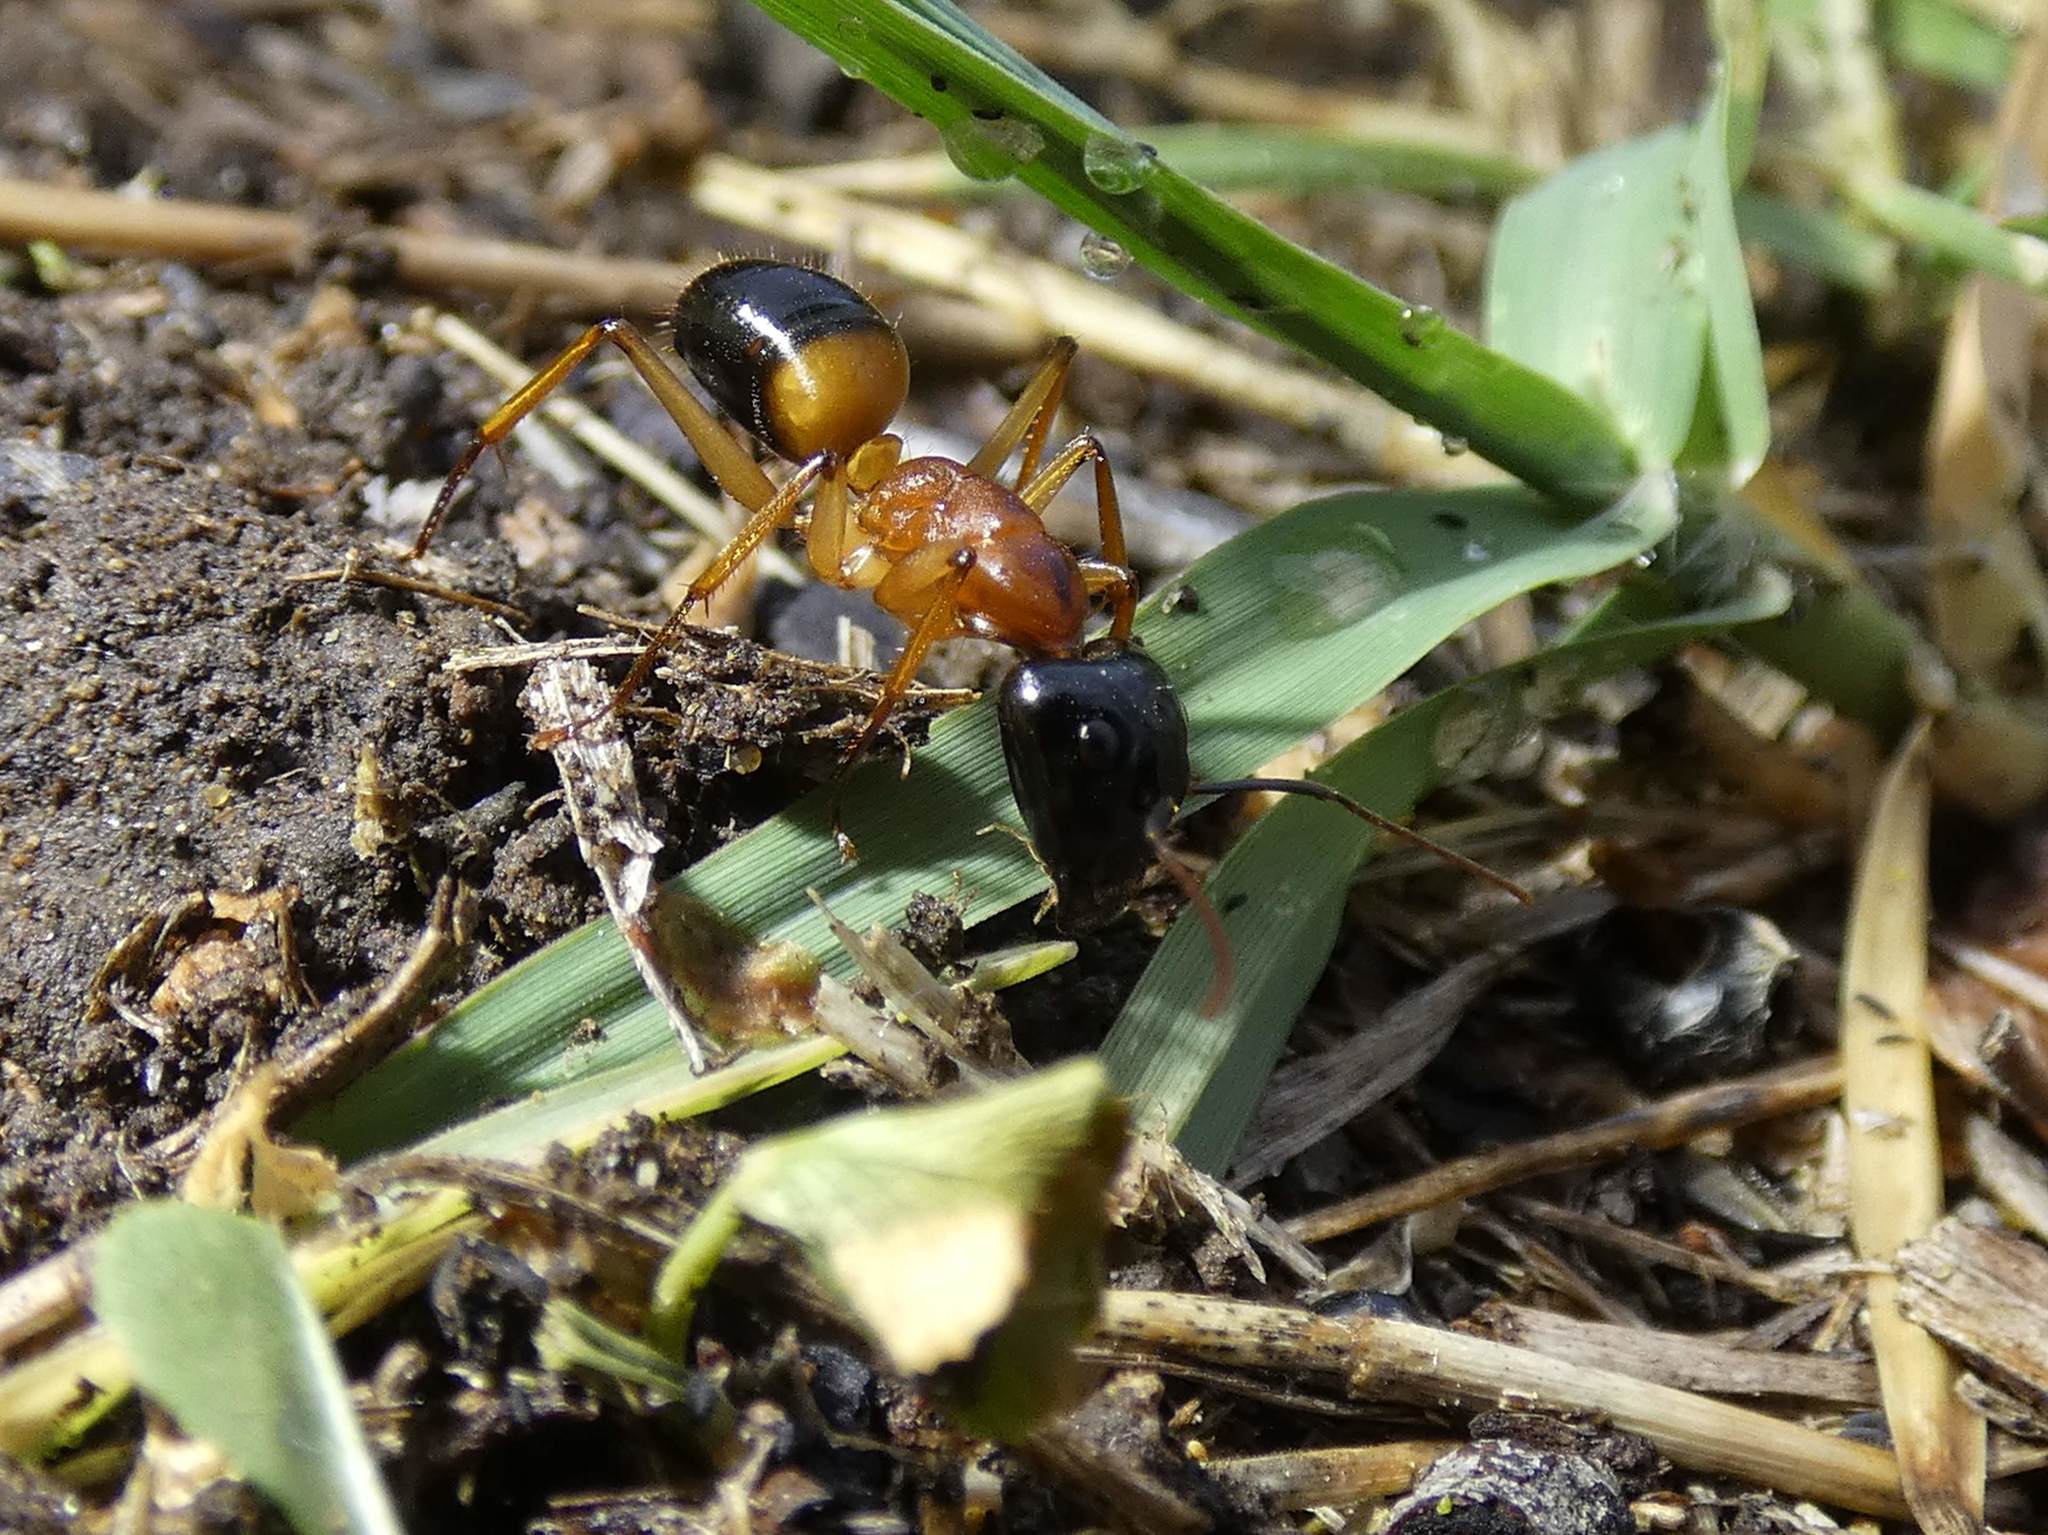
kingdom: Animalia
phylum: Arthropoda
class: Insecta
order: Hymenoptera
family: Formicidae
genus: Camponotus
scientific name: Camponotus consobrinus
